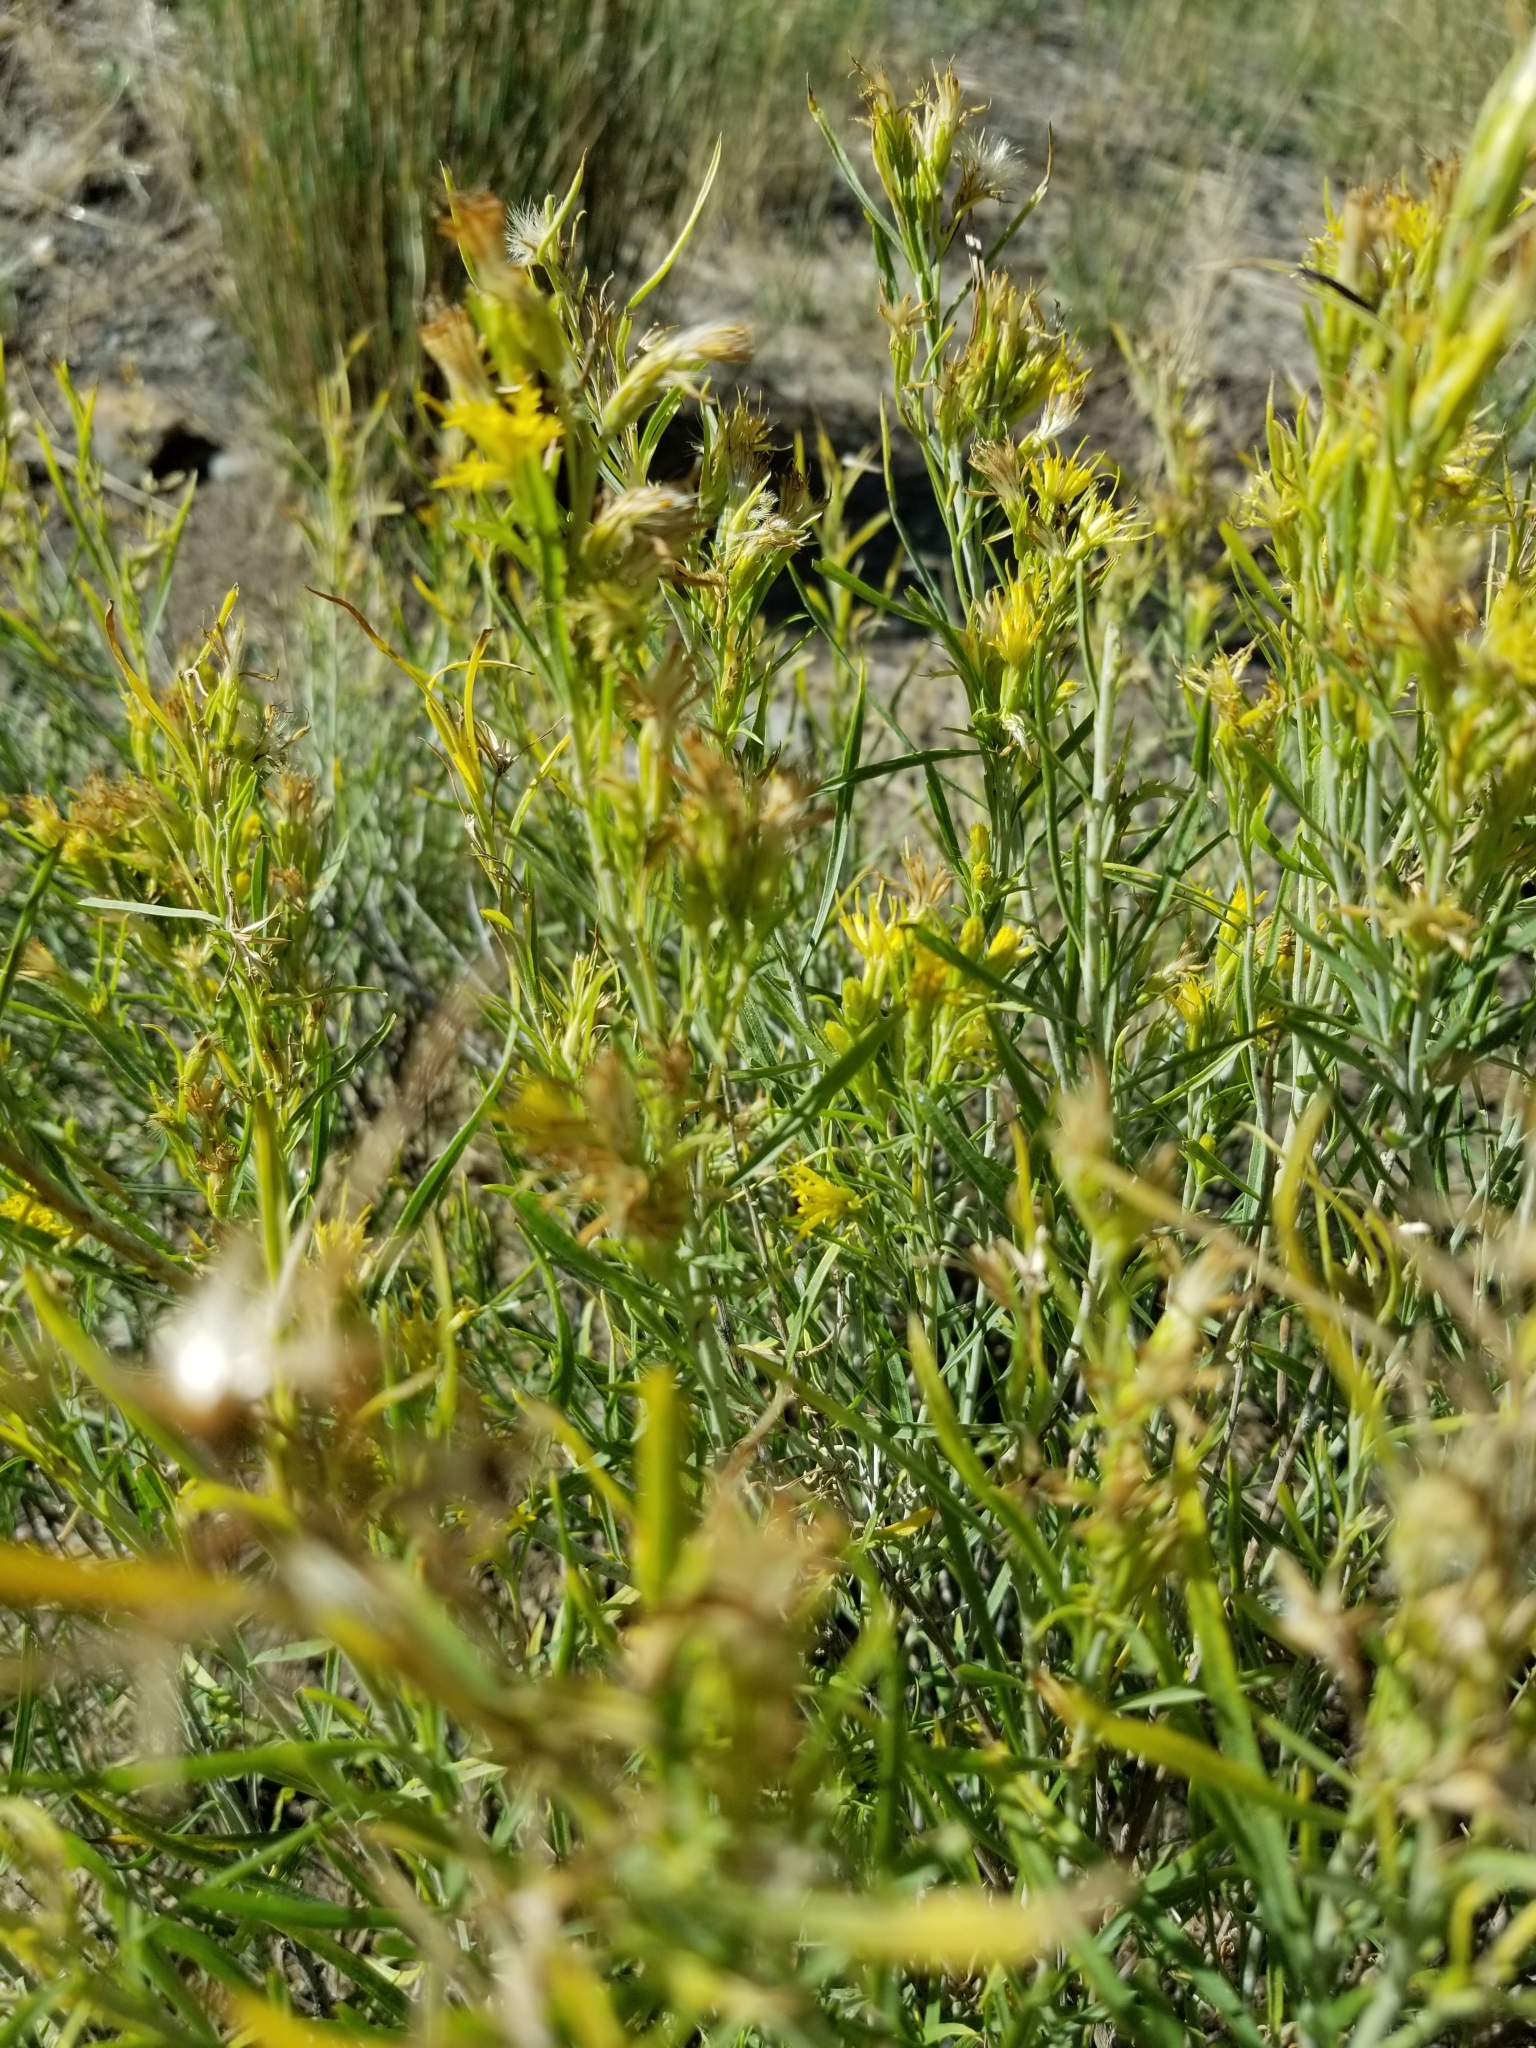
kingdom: Plantae
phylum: Tracheophyta
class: Magnoliopsida
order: Asterales
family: Asteraceae
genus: Ericameria
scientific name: Ericameria parryi
